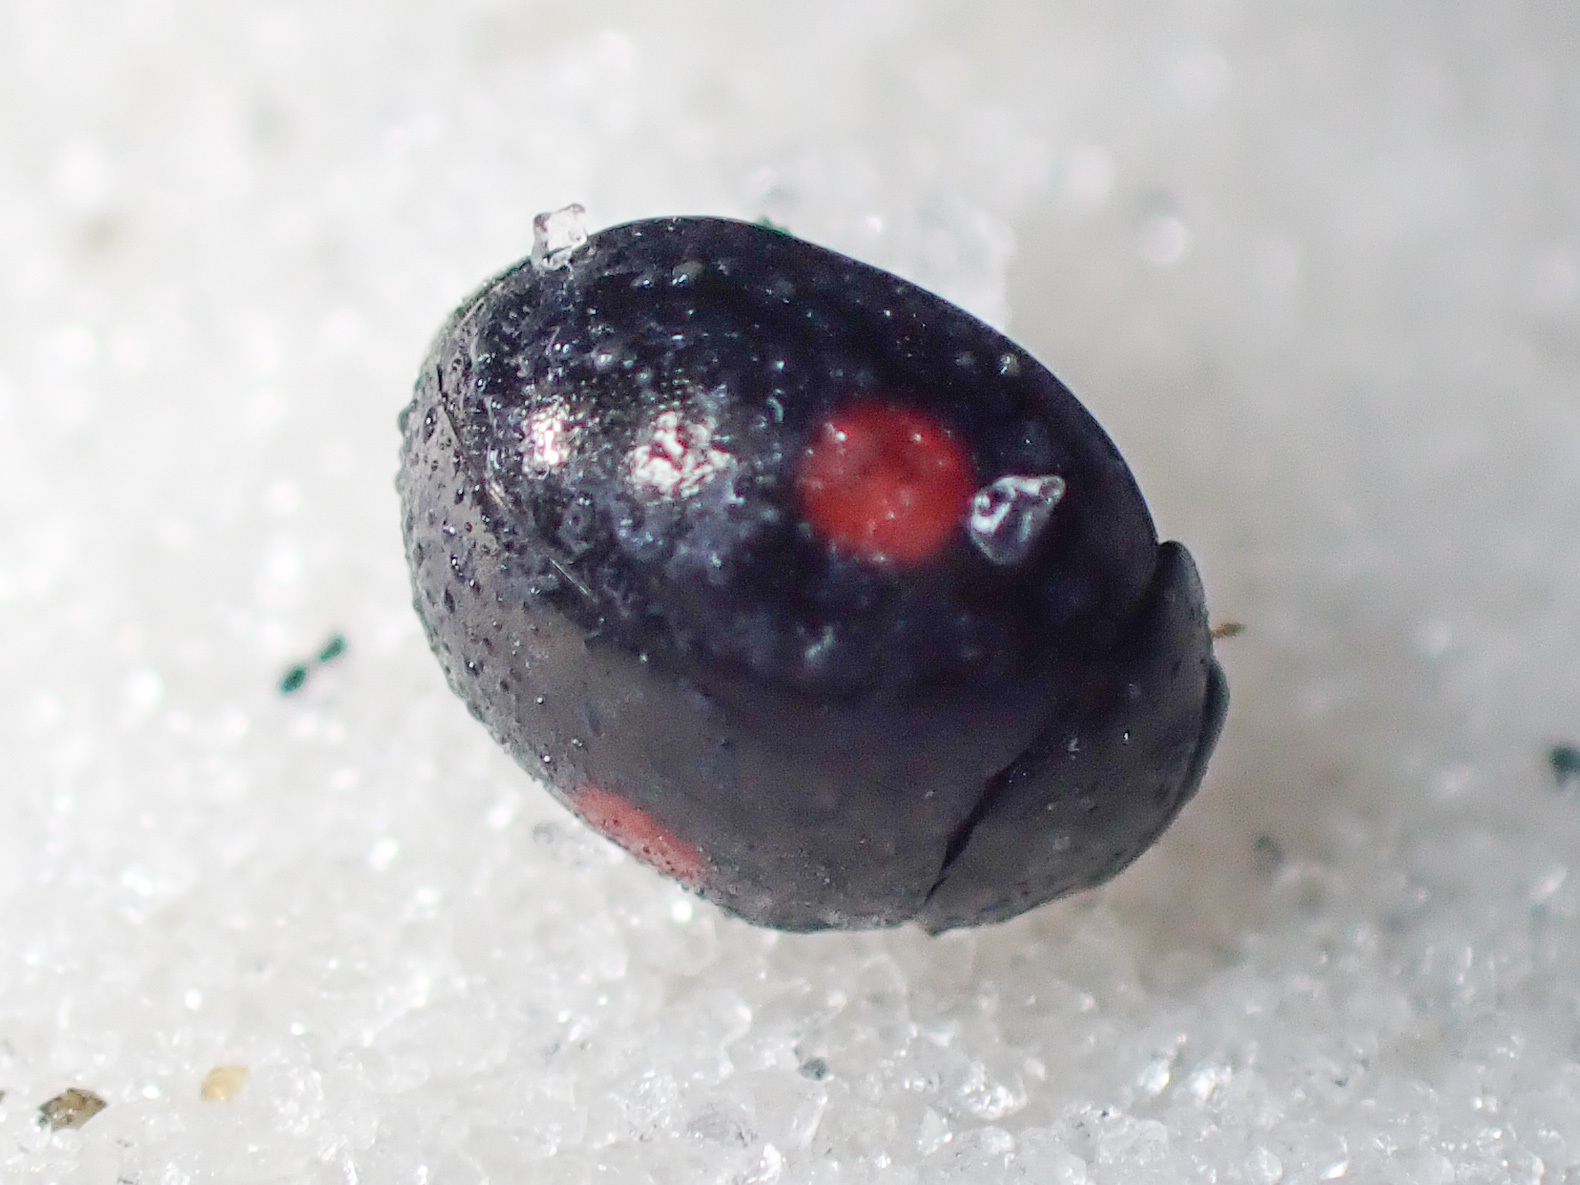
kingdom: Animalia
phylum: Arthropoda
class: Insecta
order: Coleoptera
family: Coccinellidae
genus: Hyperaspis
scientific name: Hyperaspis conviva
